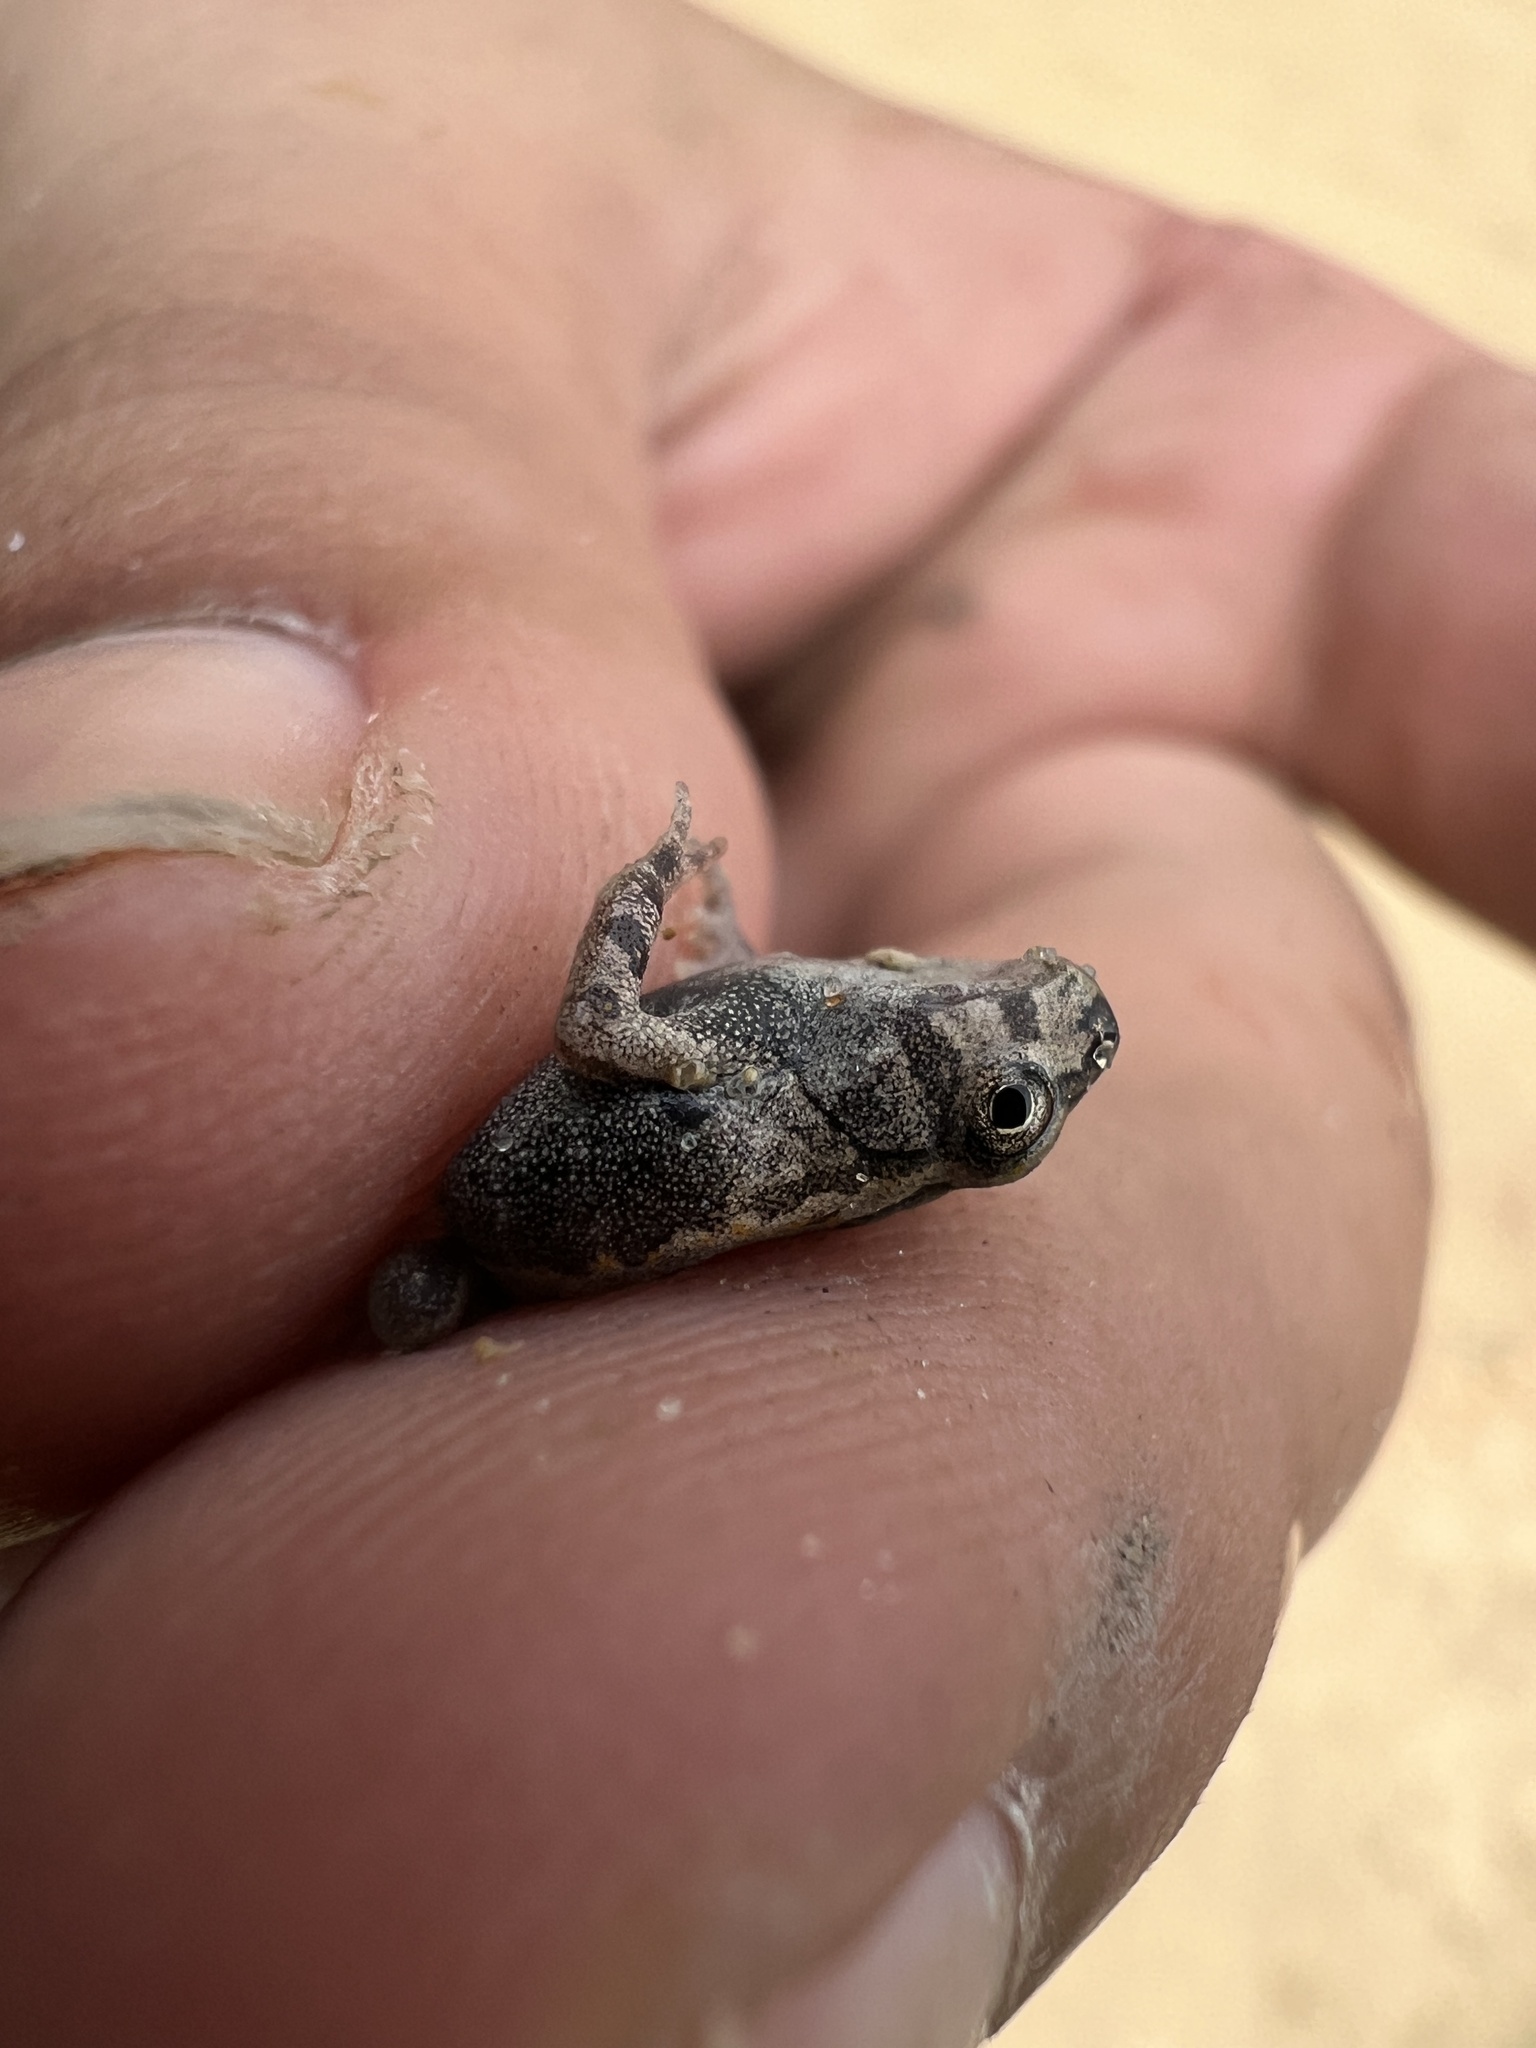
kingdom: Animalia
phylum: Chordata
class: Amphibia
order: Anura
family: Leptodactylidae
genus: Pseudopaludicola
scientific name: Pseudopaludicola falcipes
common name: Hensel’s swamp frog
